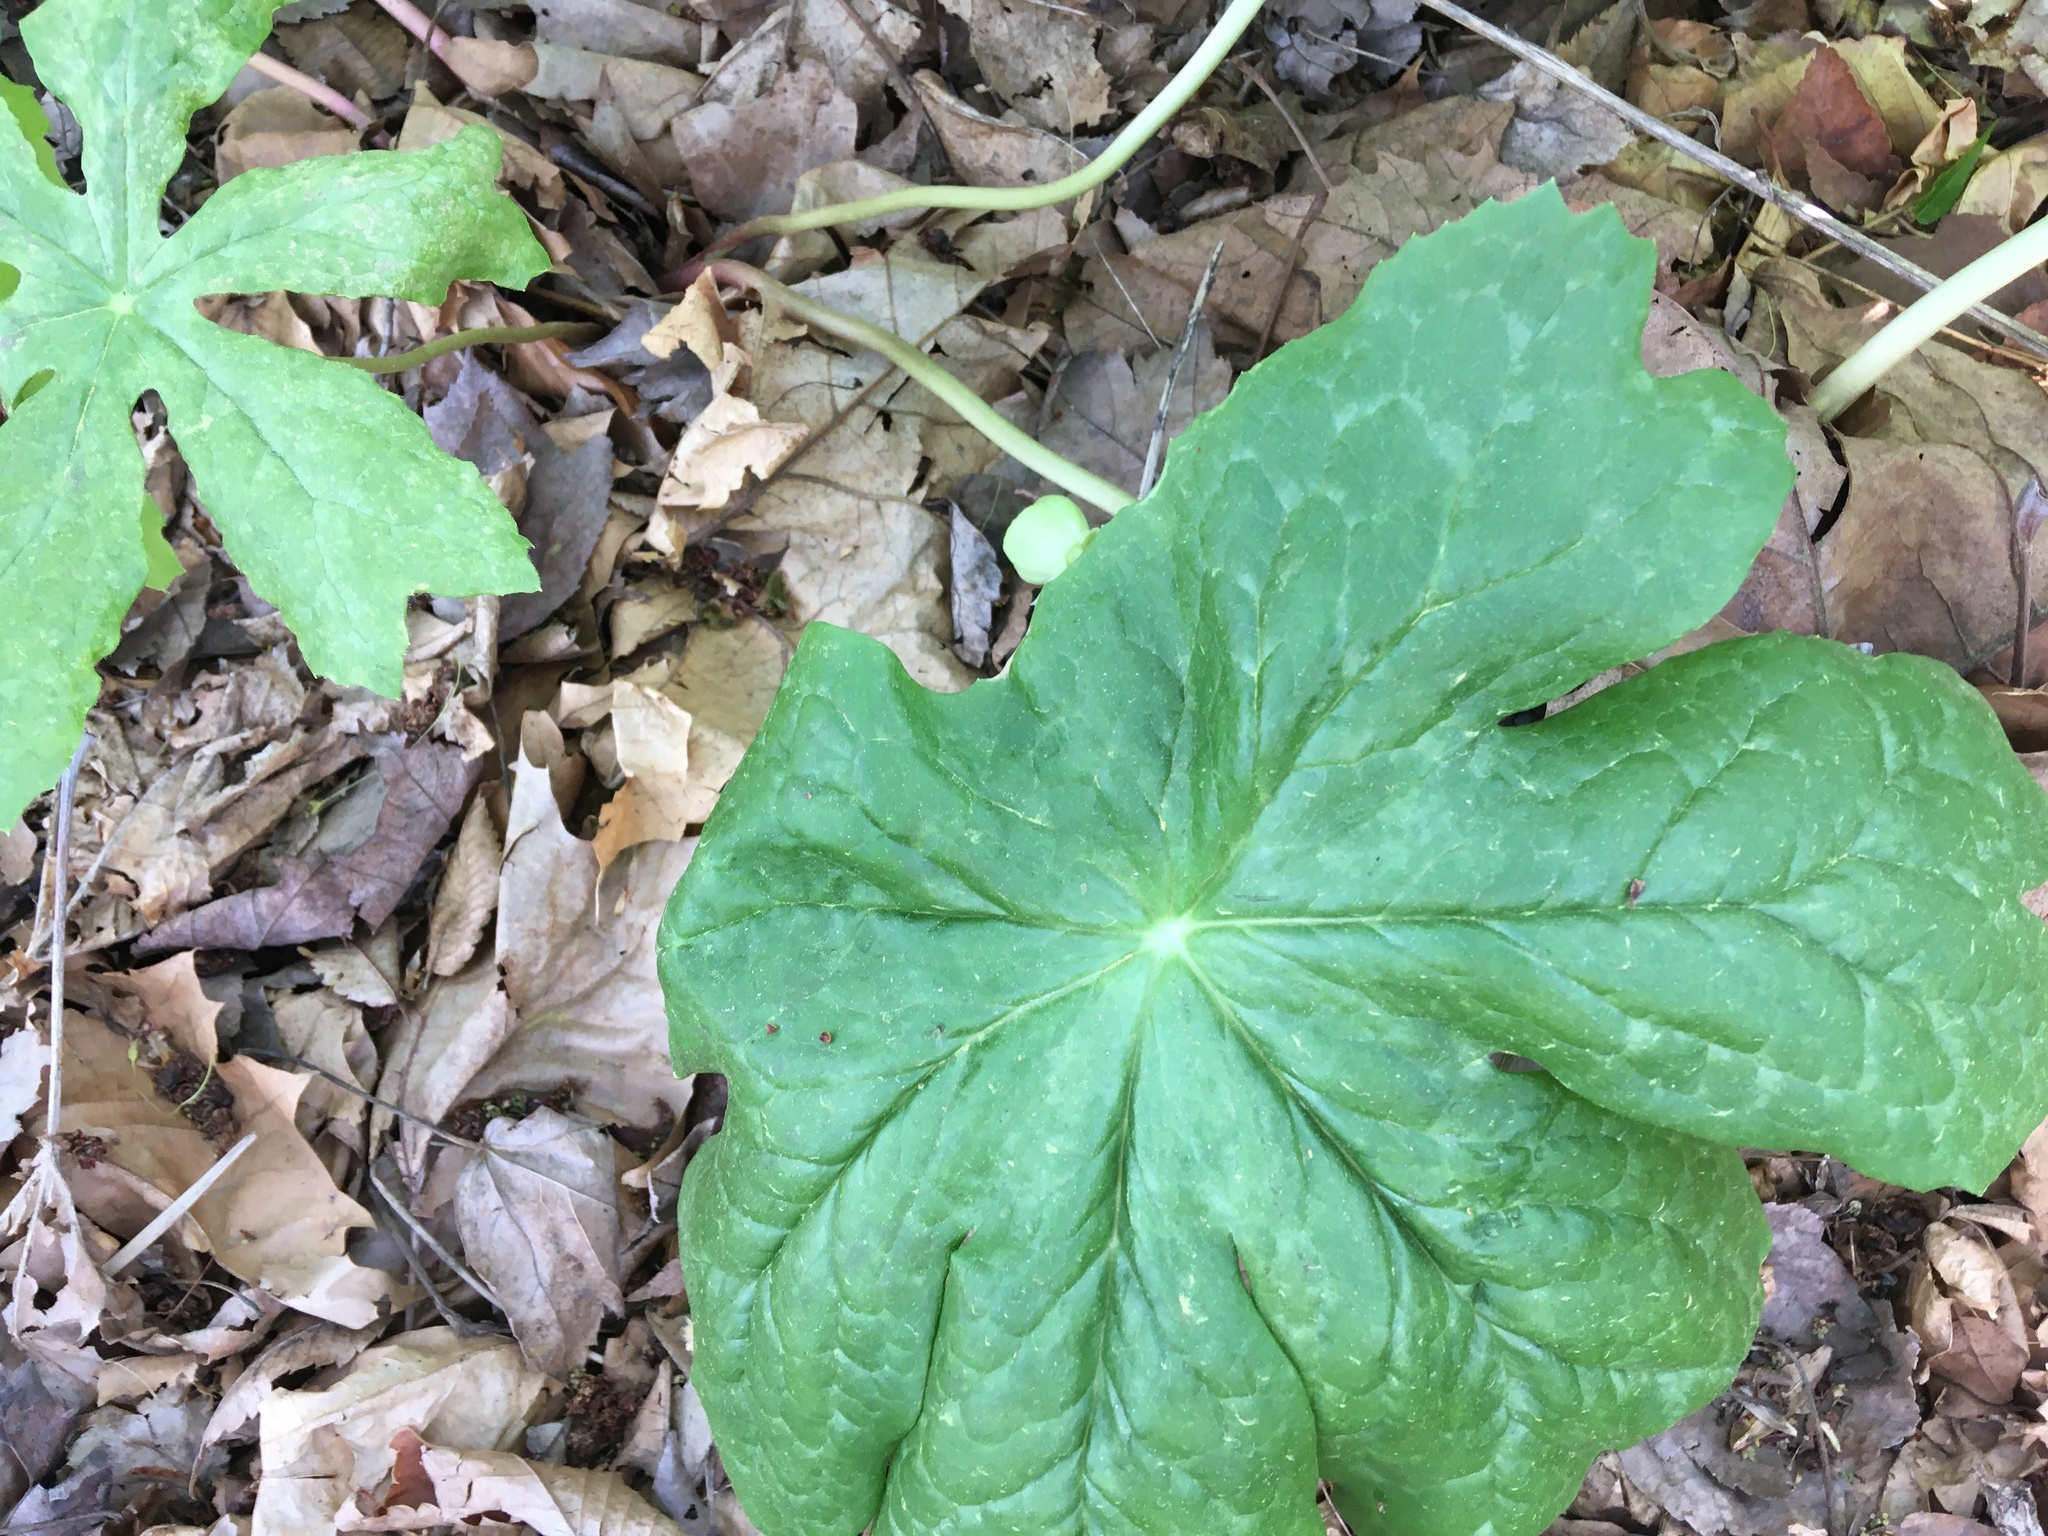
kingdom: Plantae
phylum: Tracheophyta
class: Magnoliopsida
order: Ranunculales
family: Berberidaceae
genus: Podophyllum
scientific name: Podophyllum peltatum
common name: Wild mandrake
